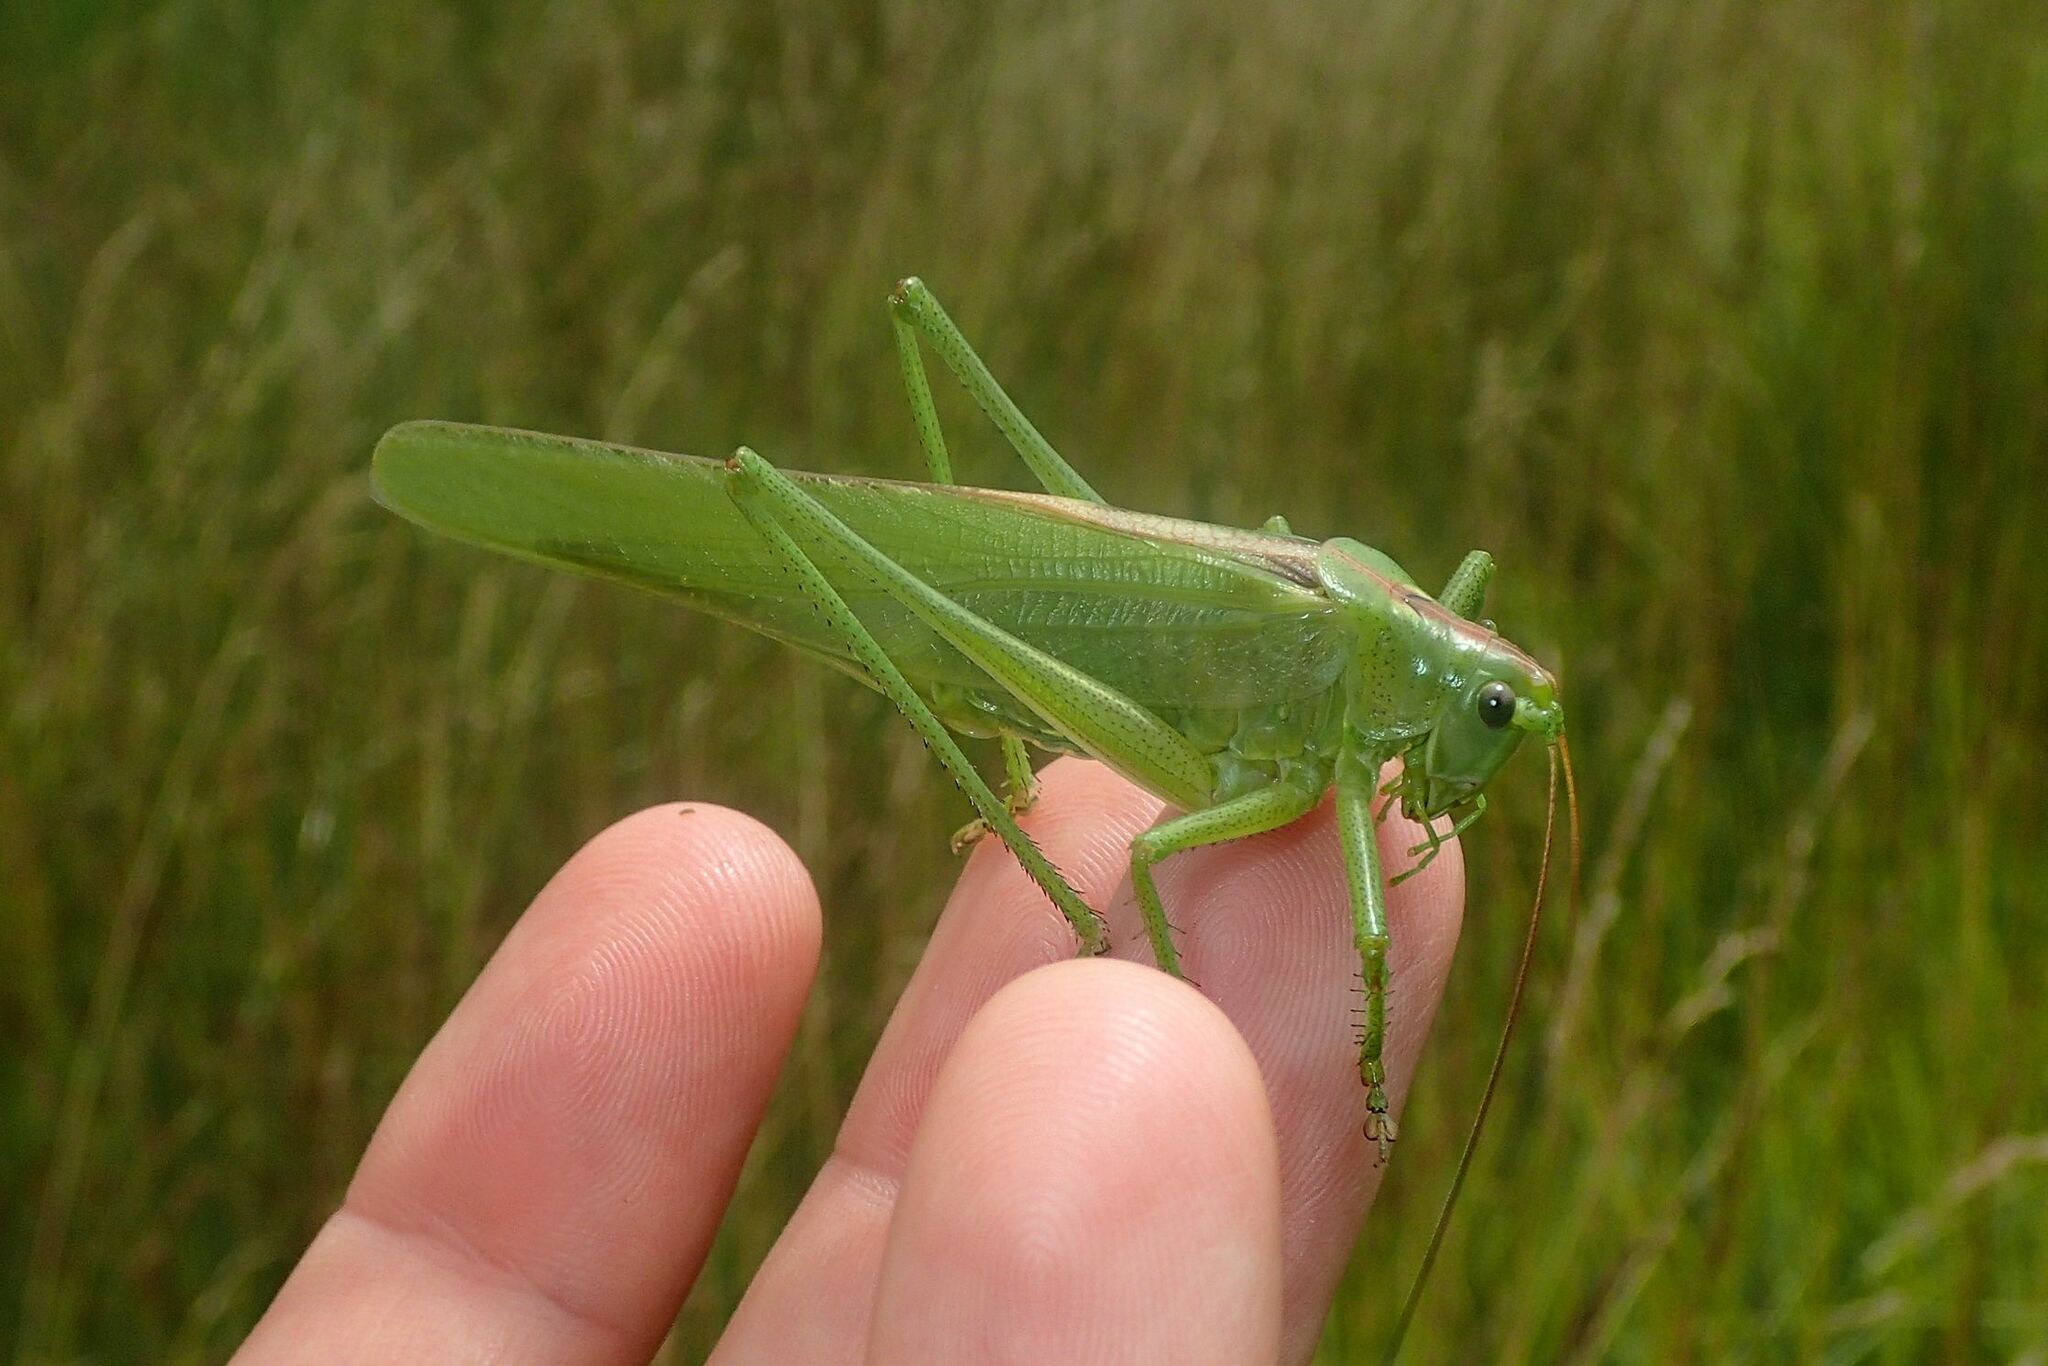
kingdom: Animalia
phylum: Arthropoda
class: Insecta
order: Orthoptera
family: Tettigoniidae
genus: Tettigonia
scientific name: Tettigonia viridissima
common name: Great green bush-cricket
